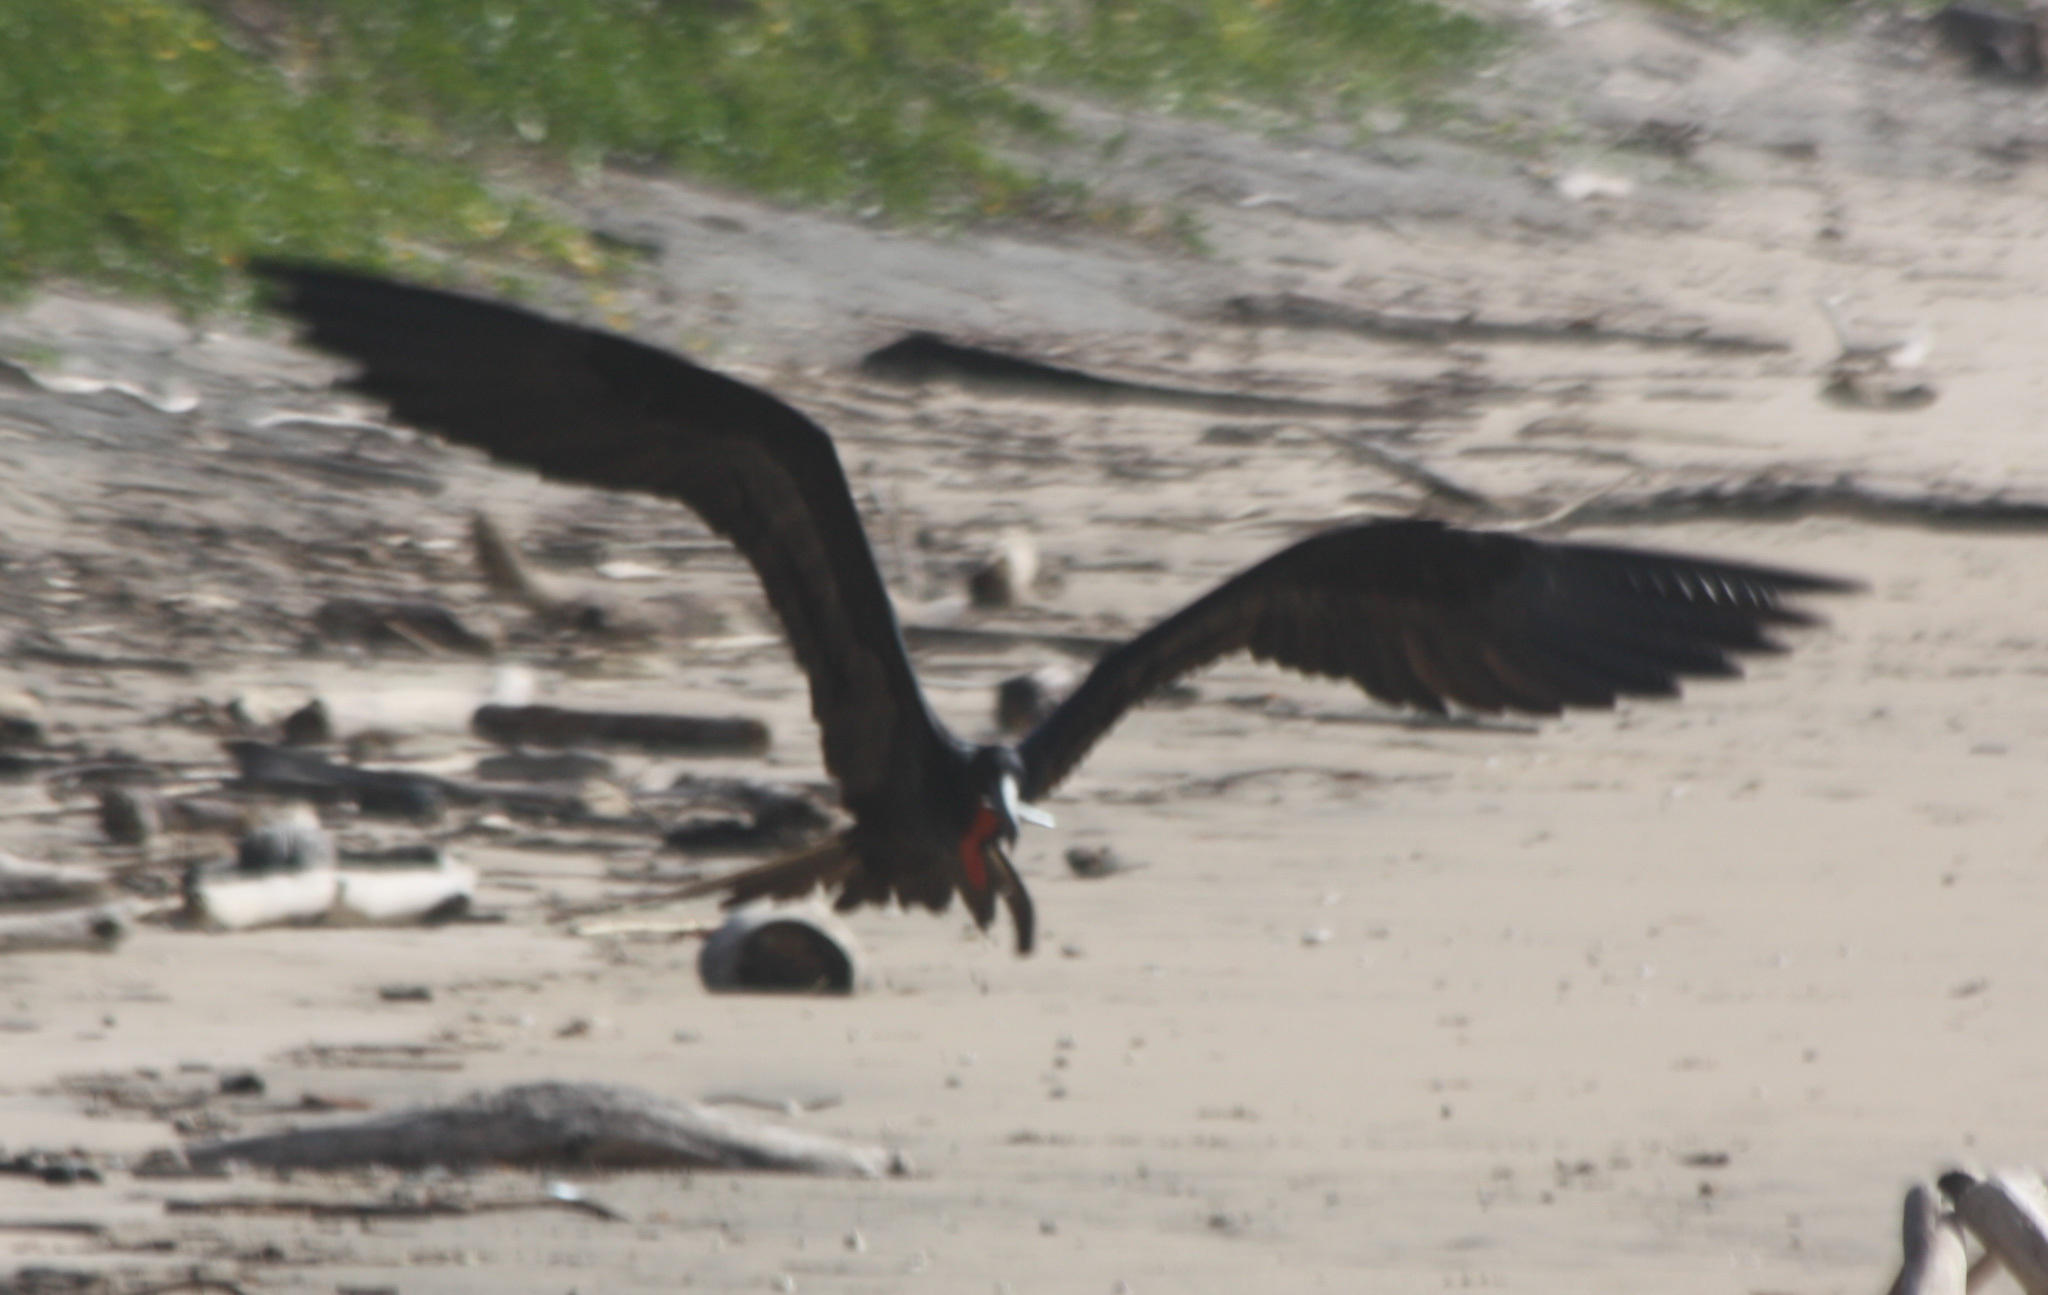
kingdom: Animalia
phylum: Chordata
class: Aves
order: Suliformes
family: Fregatidae
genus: Fregata
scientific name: Fregata magnificens
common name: Magnificent frigatebird
